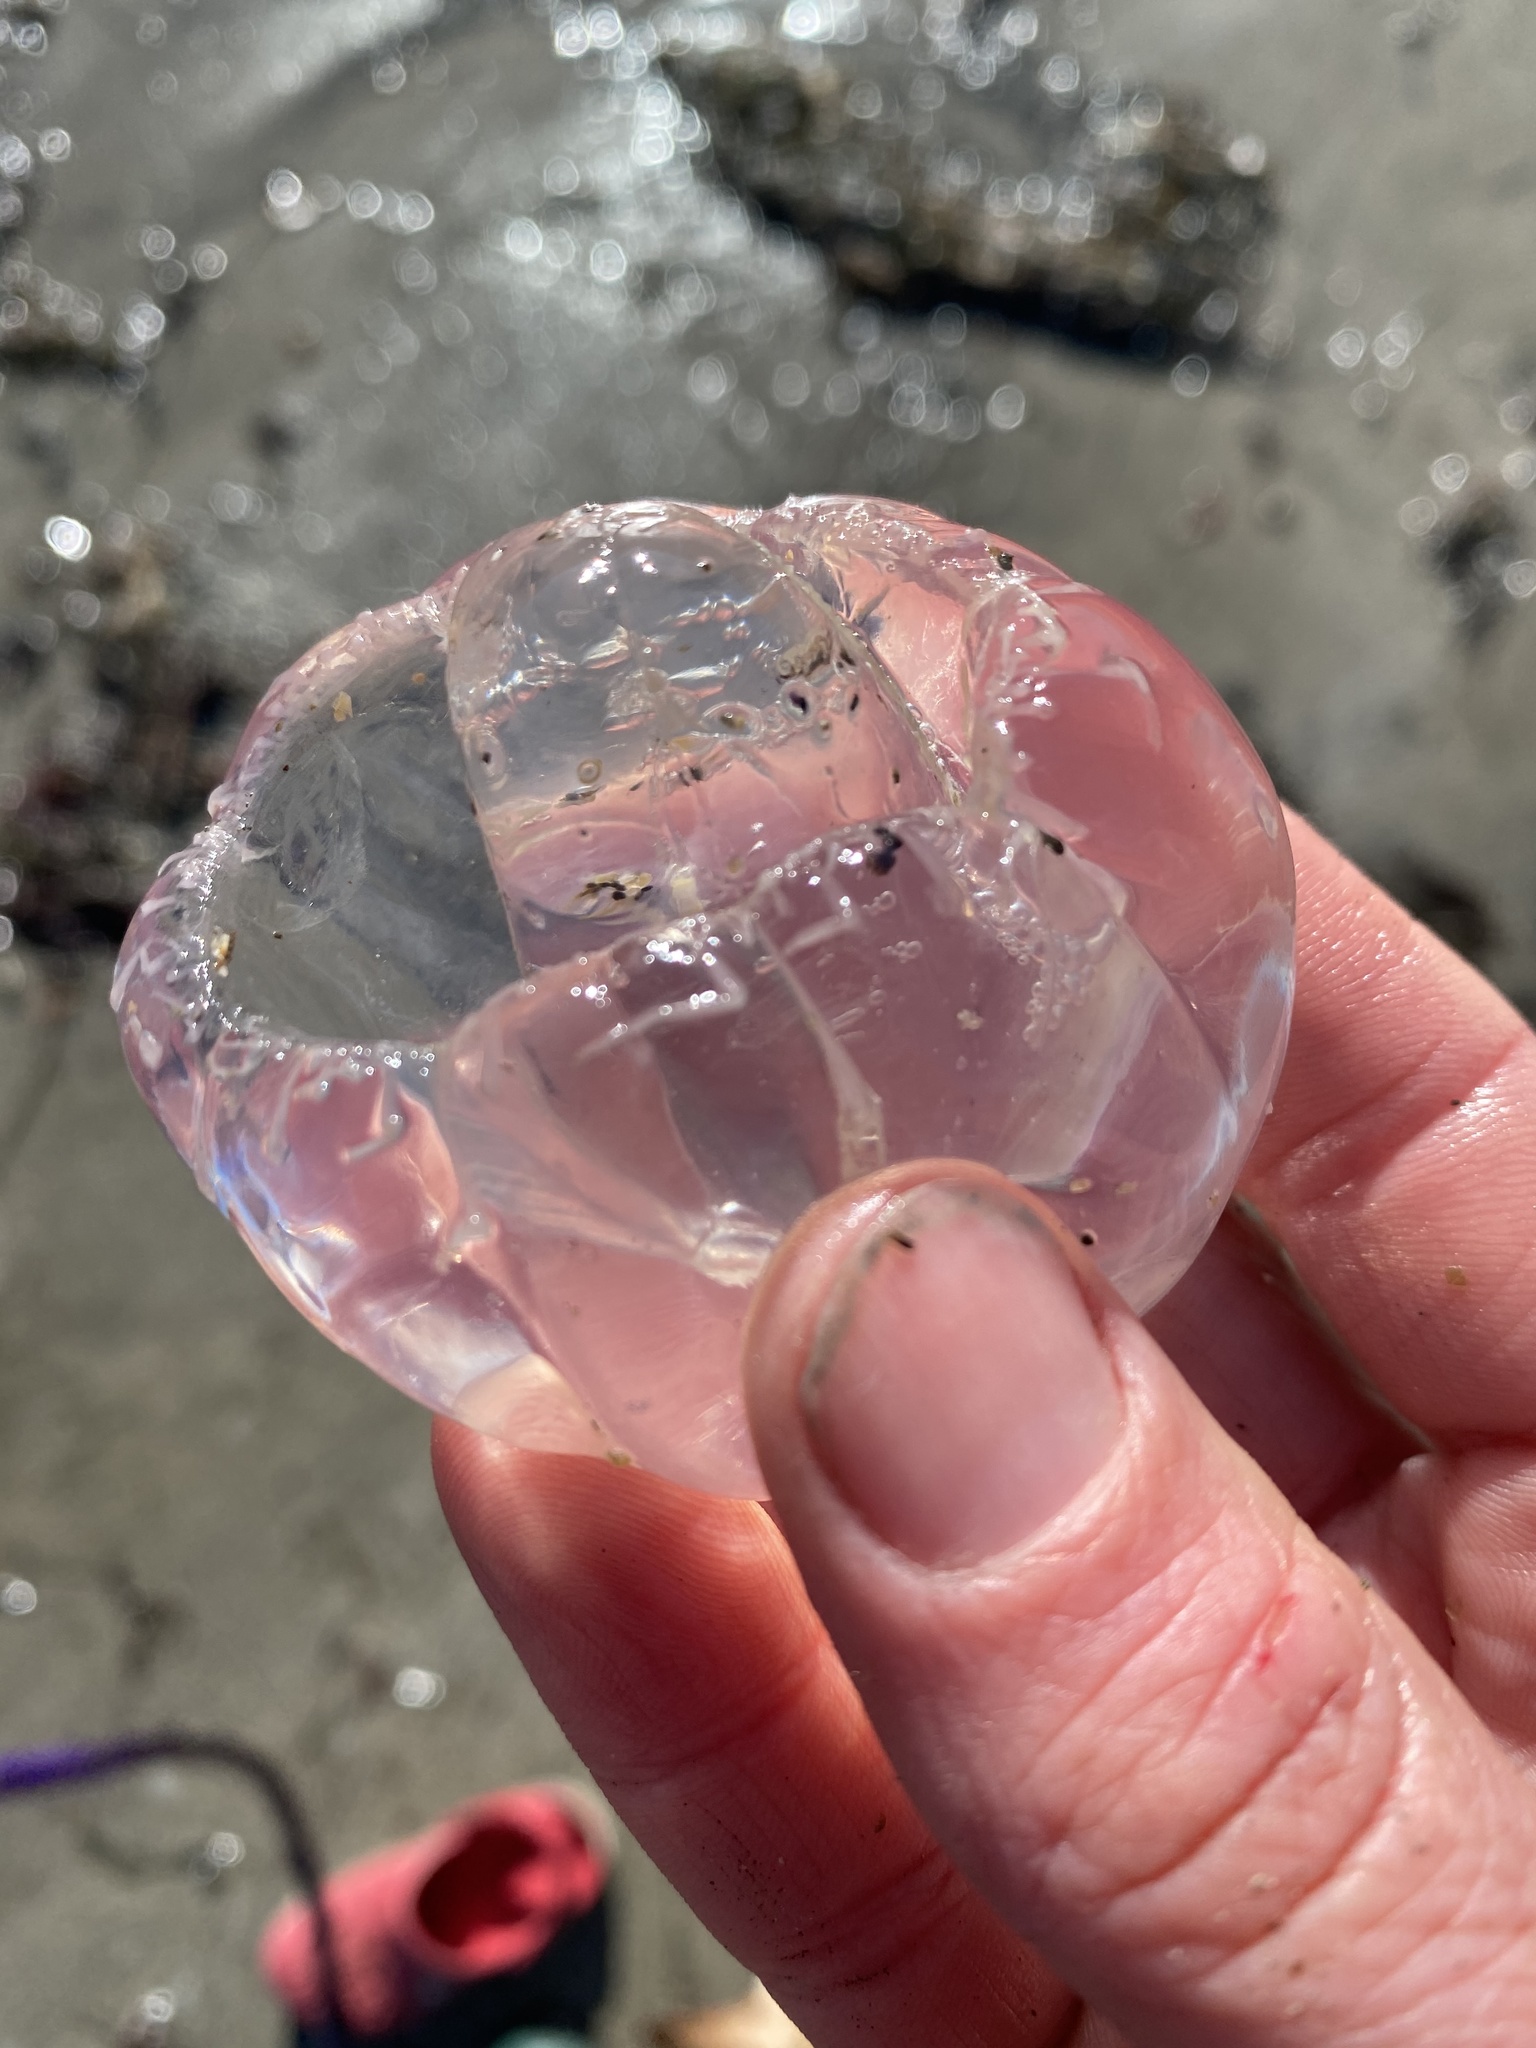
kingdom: Animalia
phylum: Cnidaria
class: Hydrozoa
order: Anthoathecata
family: Corynidae
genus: Scrippsia
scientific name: Scrippsia pacifica
